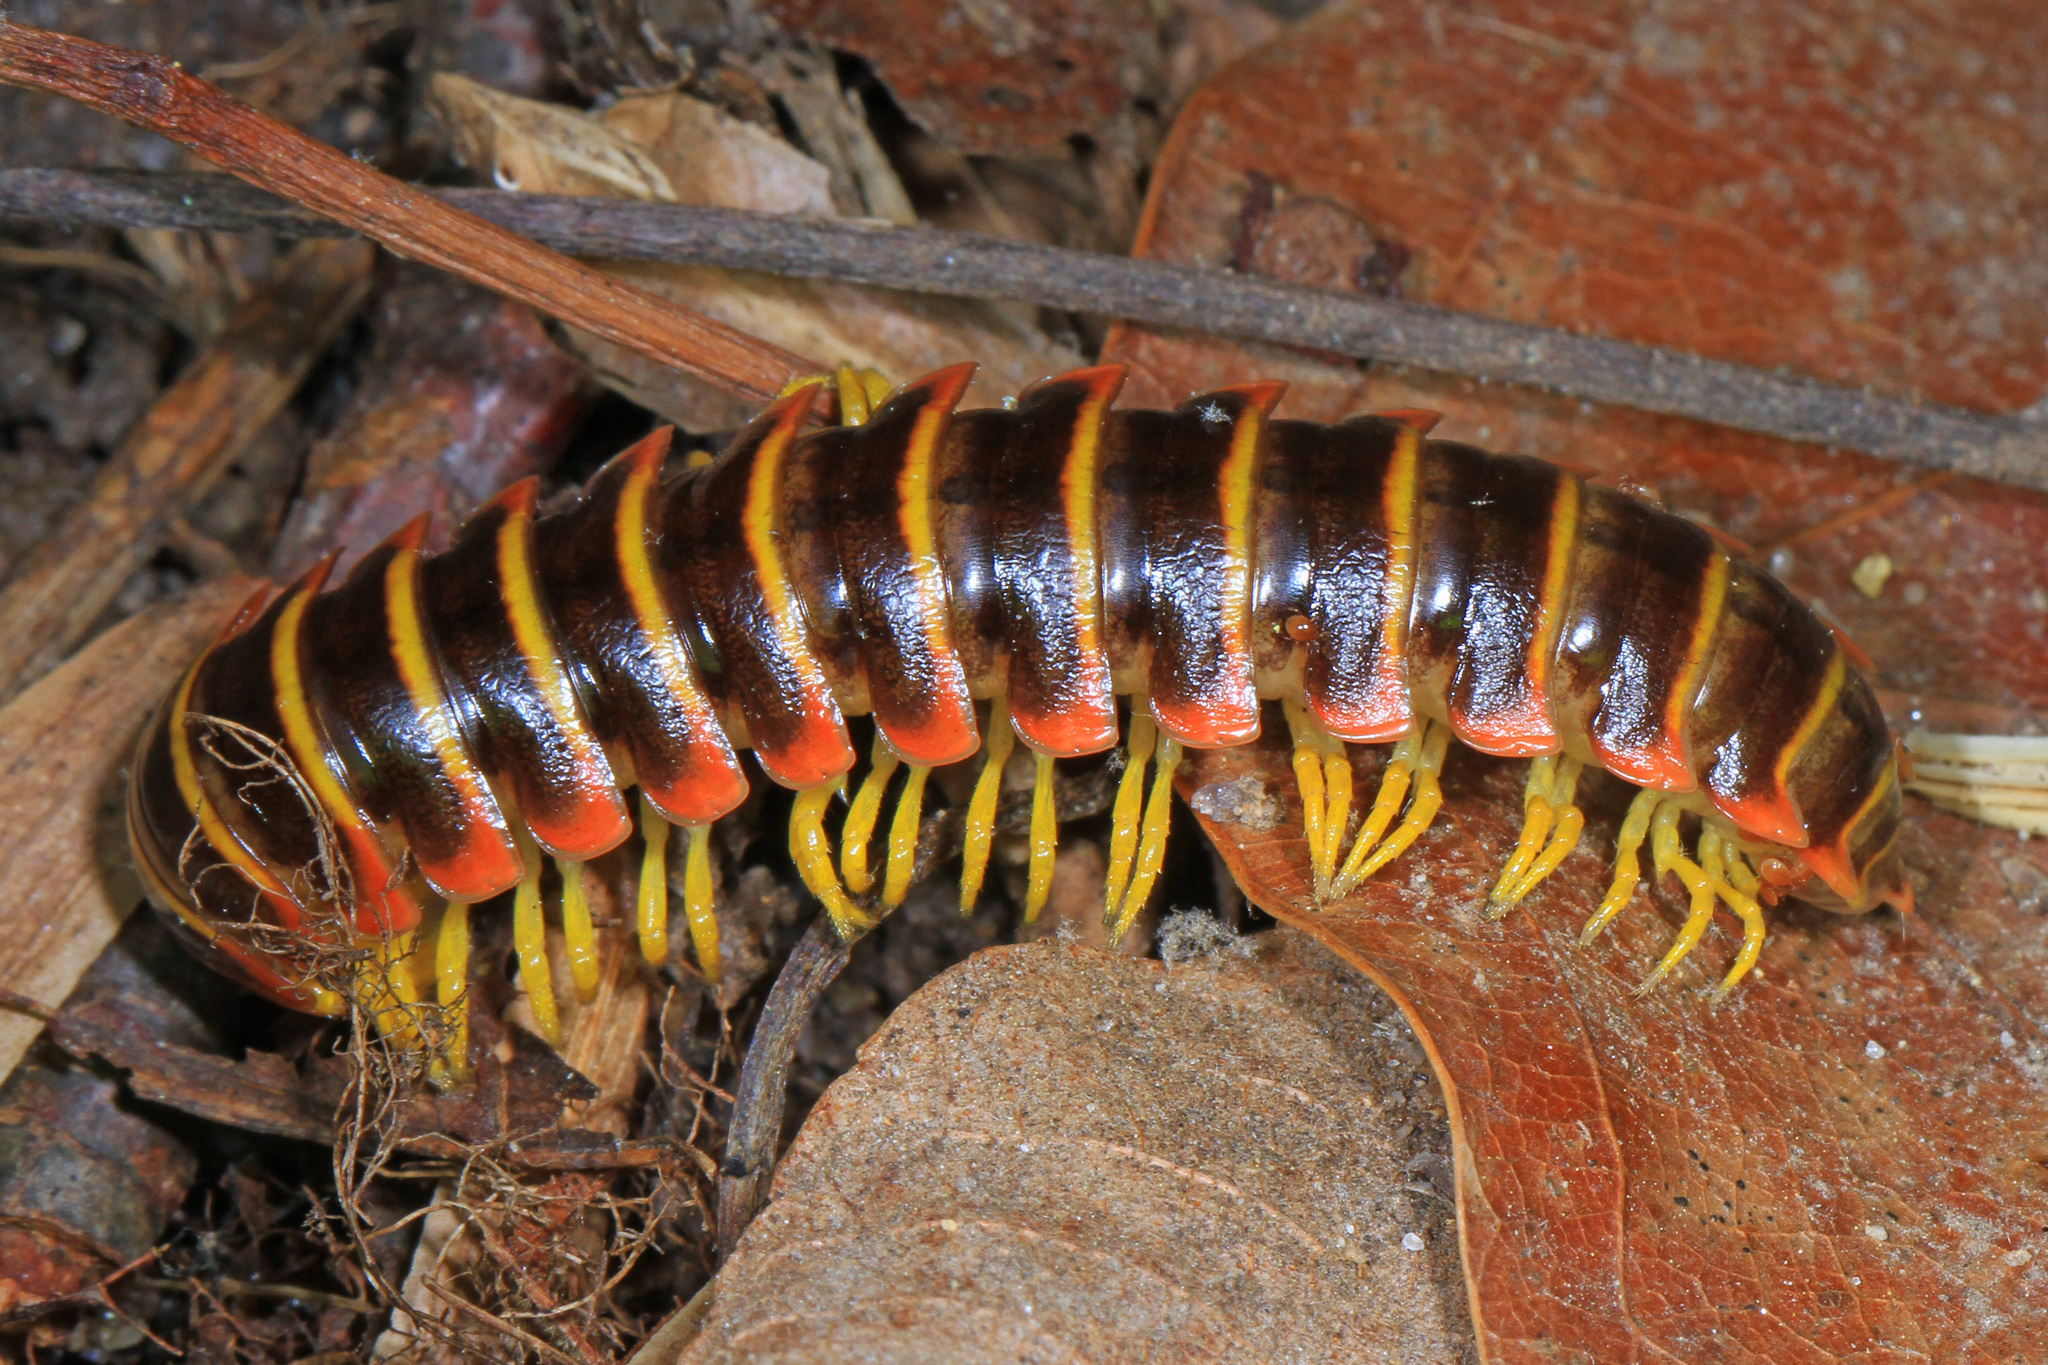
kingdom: Animalia
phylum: Arthropoda
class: Diplopoda
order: Polydesmida
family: Xystodesmidae
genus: Apheloria
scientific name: Apheloria virginiensis
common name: Black-and-gold flat millipede
